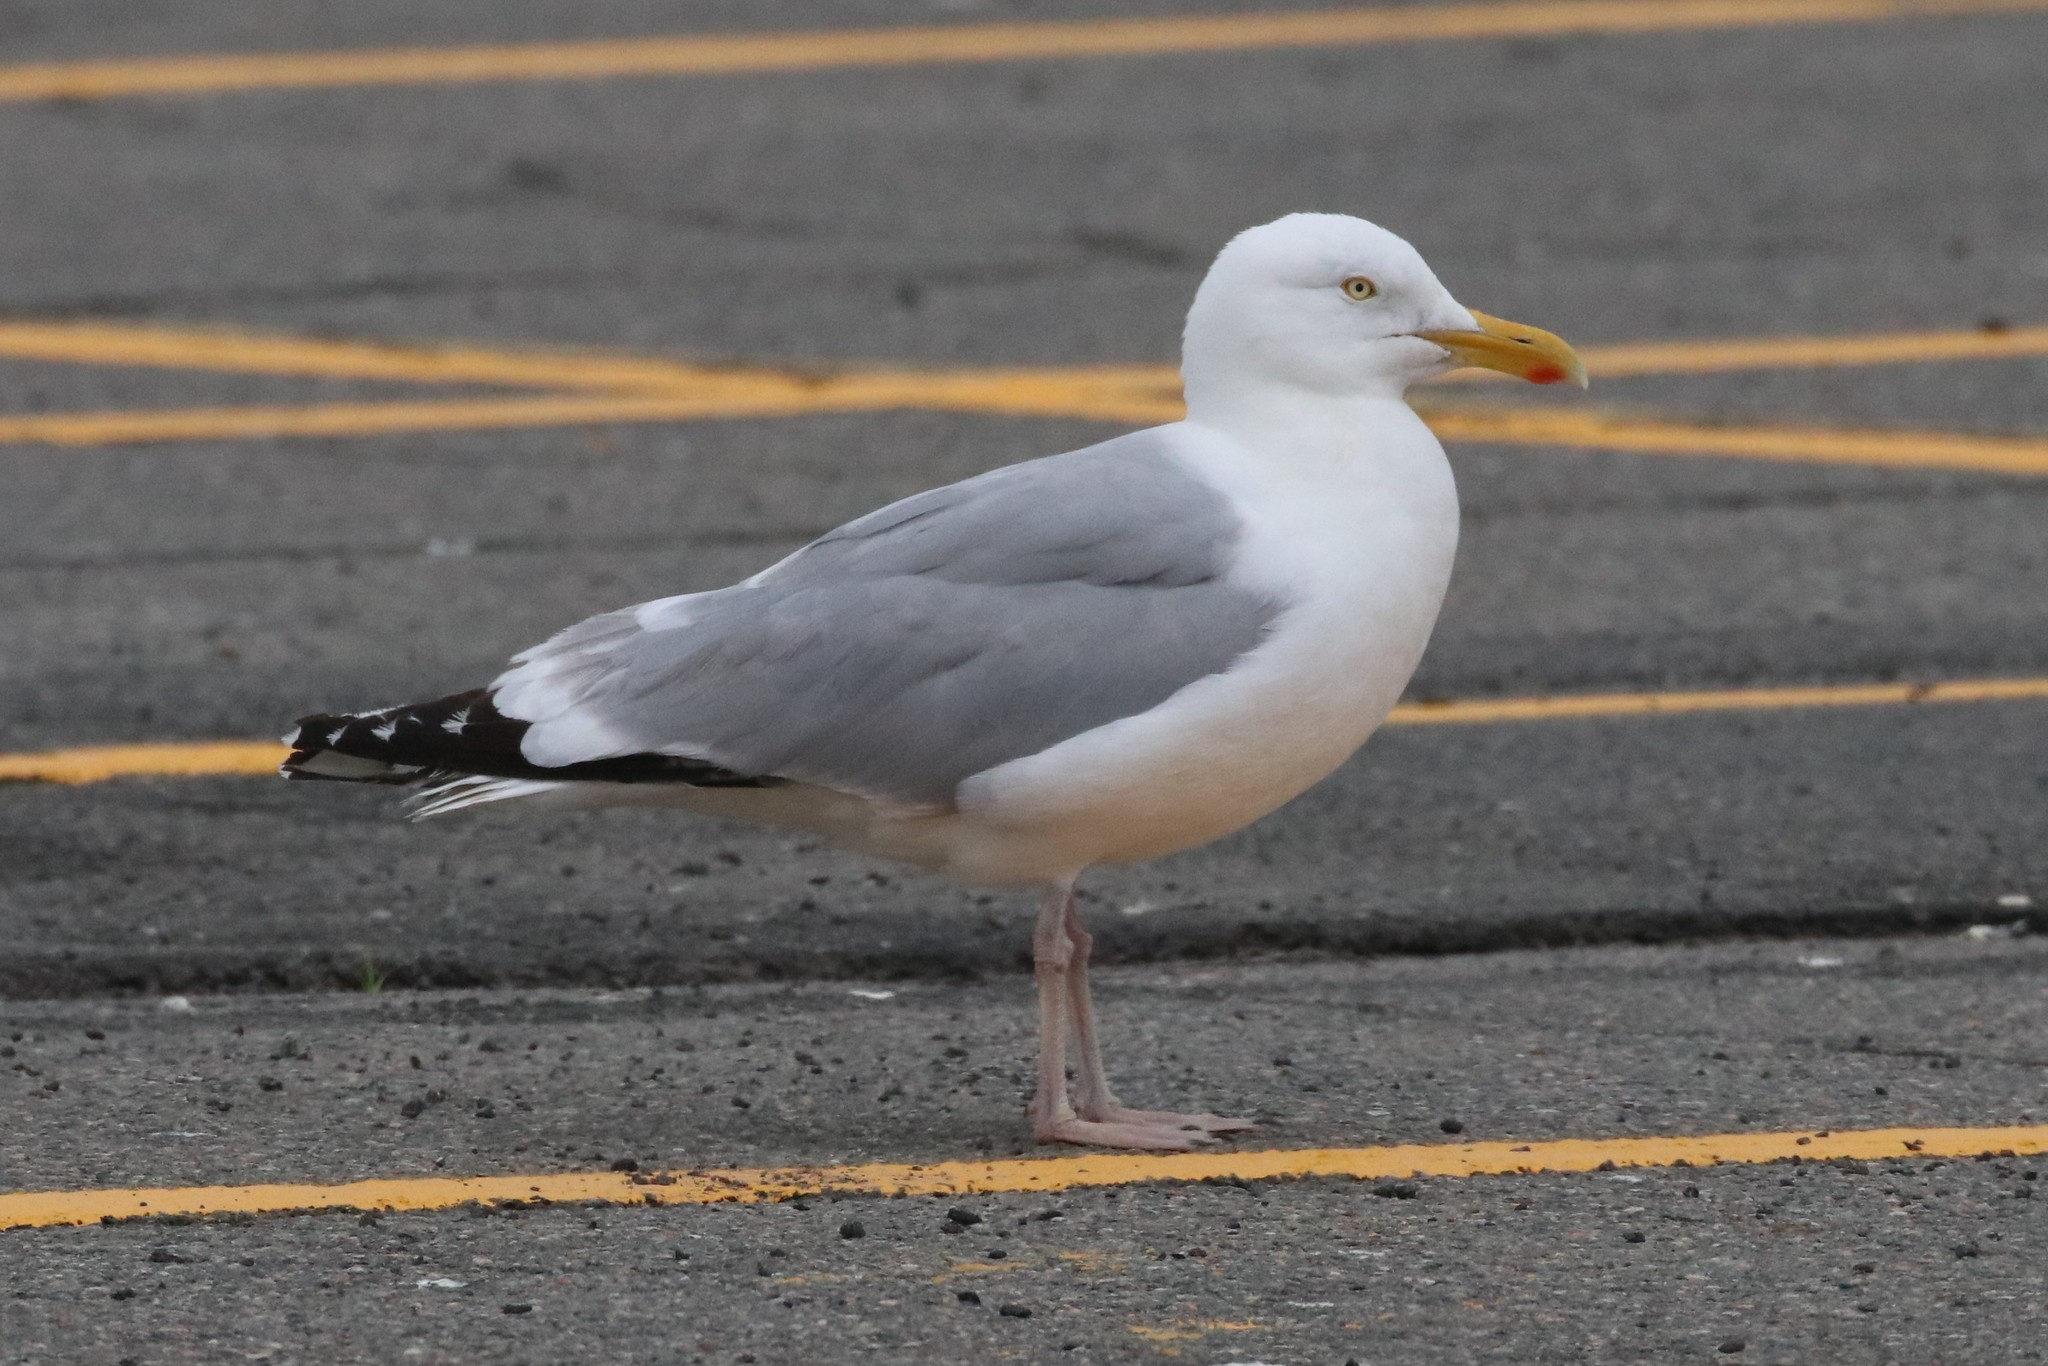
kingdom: Animalia
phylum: Chordata
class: Aves
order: Charadriiformes
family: Laridae
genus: Larus
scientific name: Larus argentatus
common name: Herring gull
